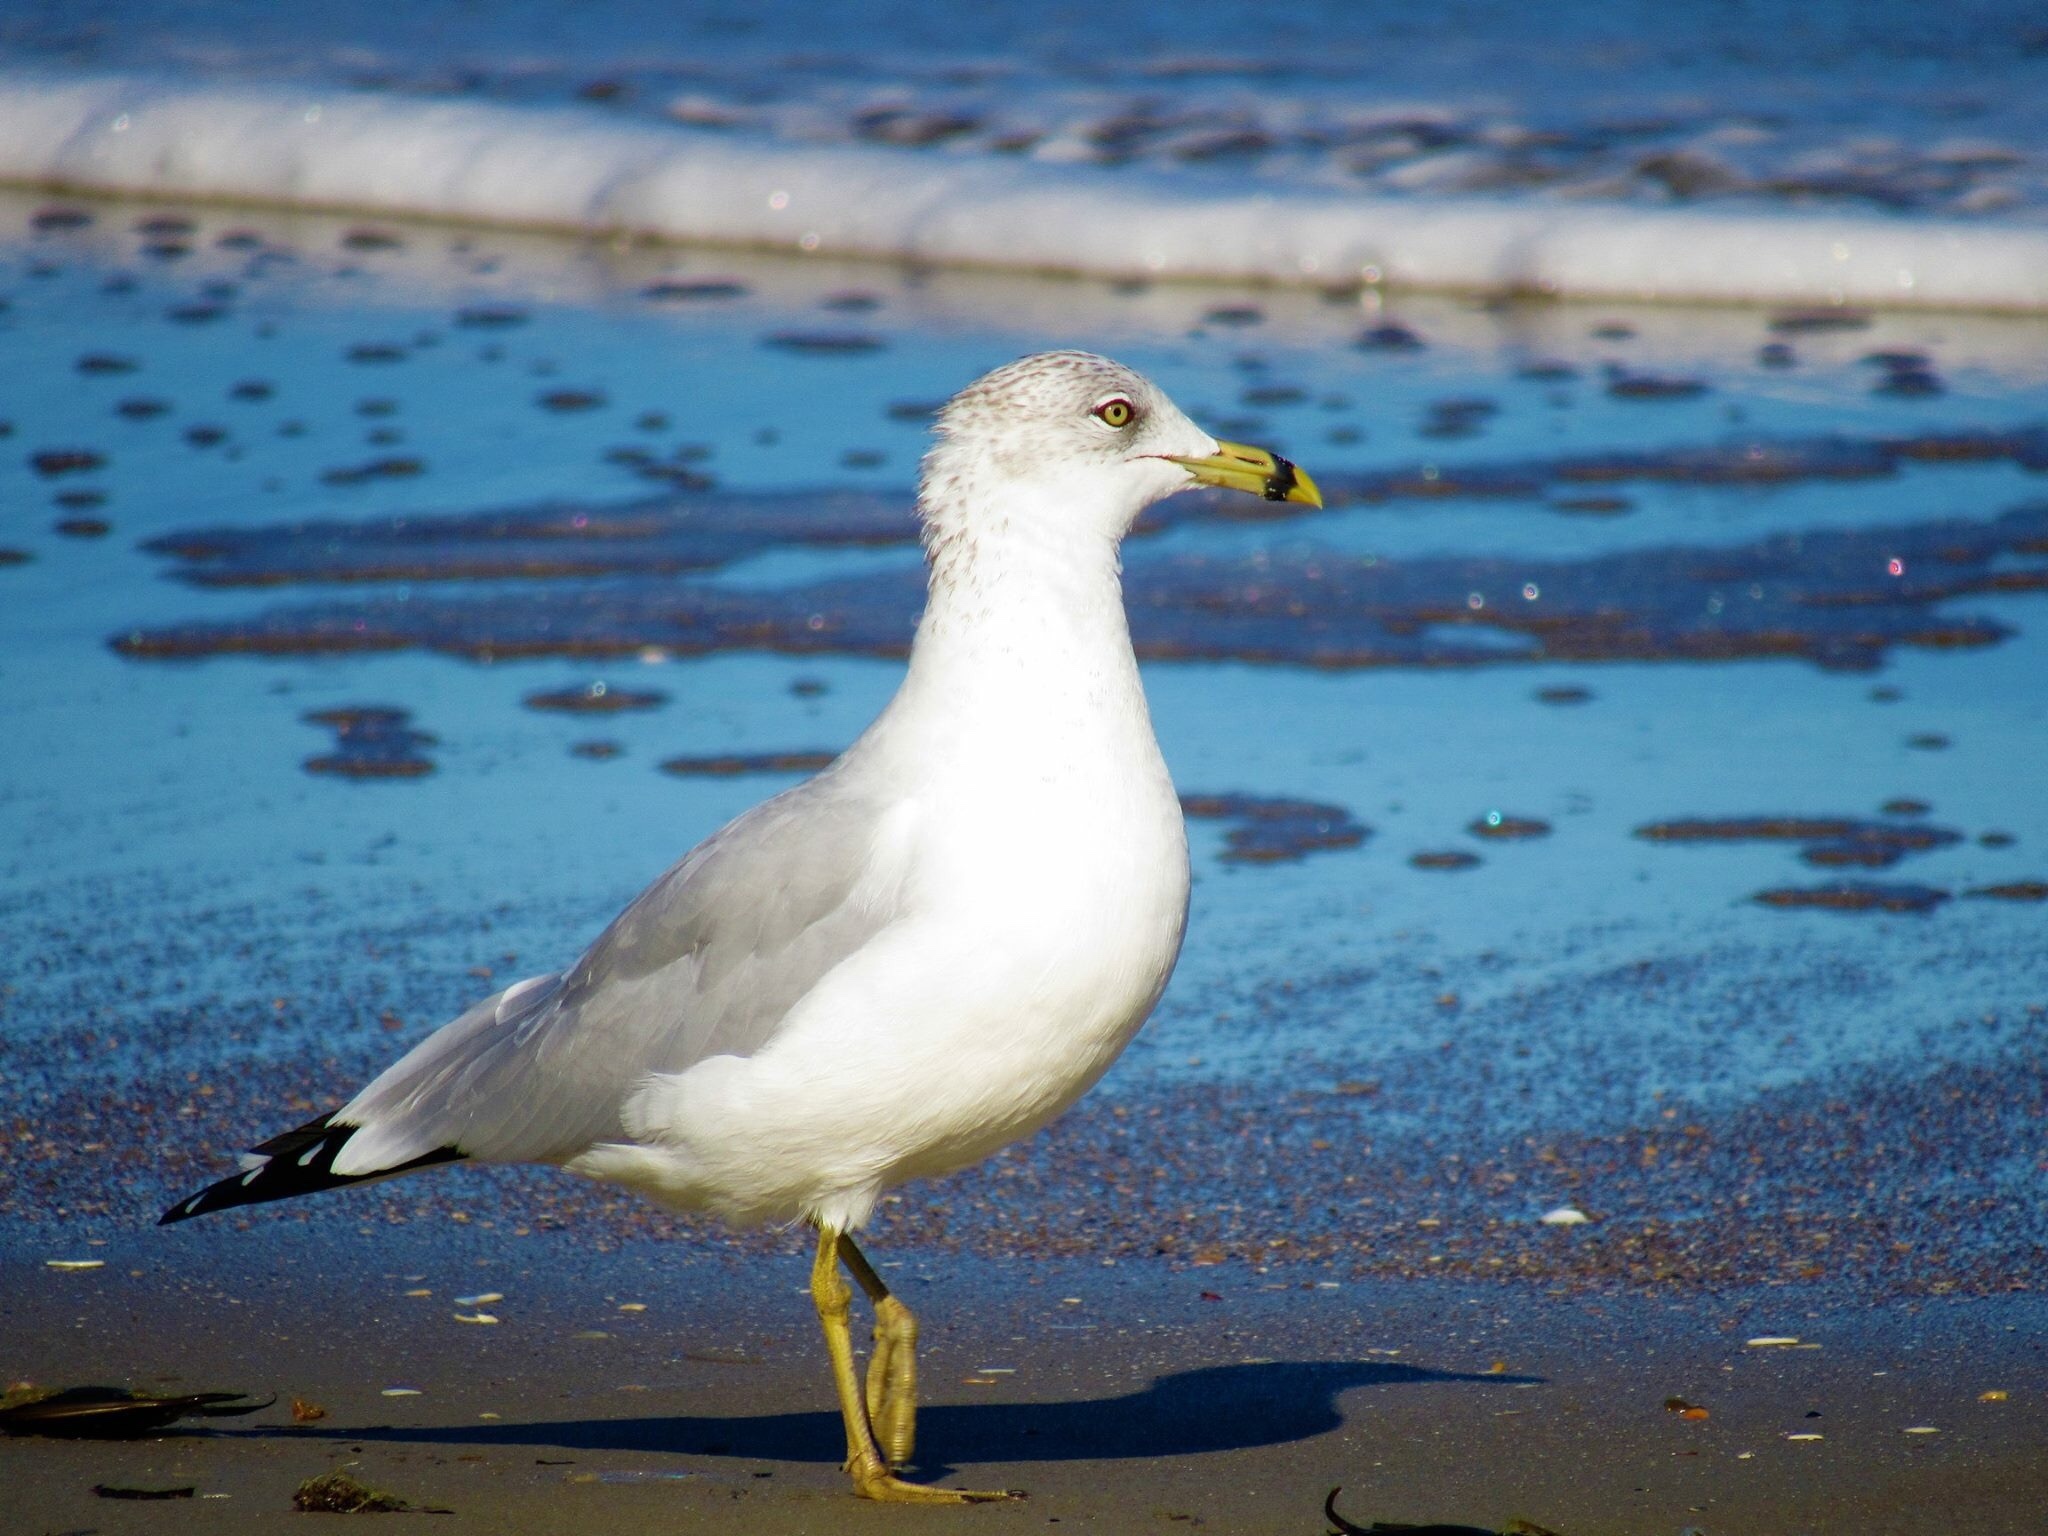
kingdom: Animalia
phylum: Chordata
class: Aves
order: Charadriiformes
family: Laridae
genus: Larus
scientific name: Larus delawarensis
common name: Ring-billed gull
